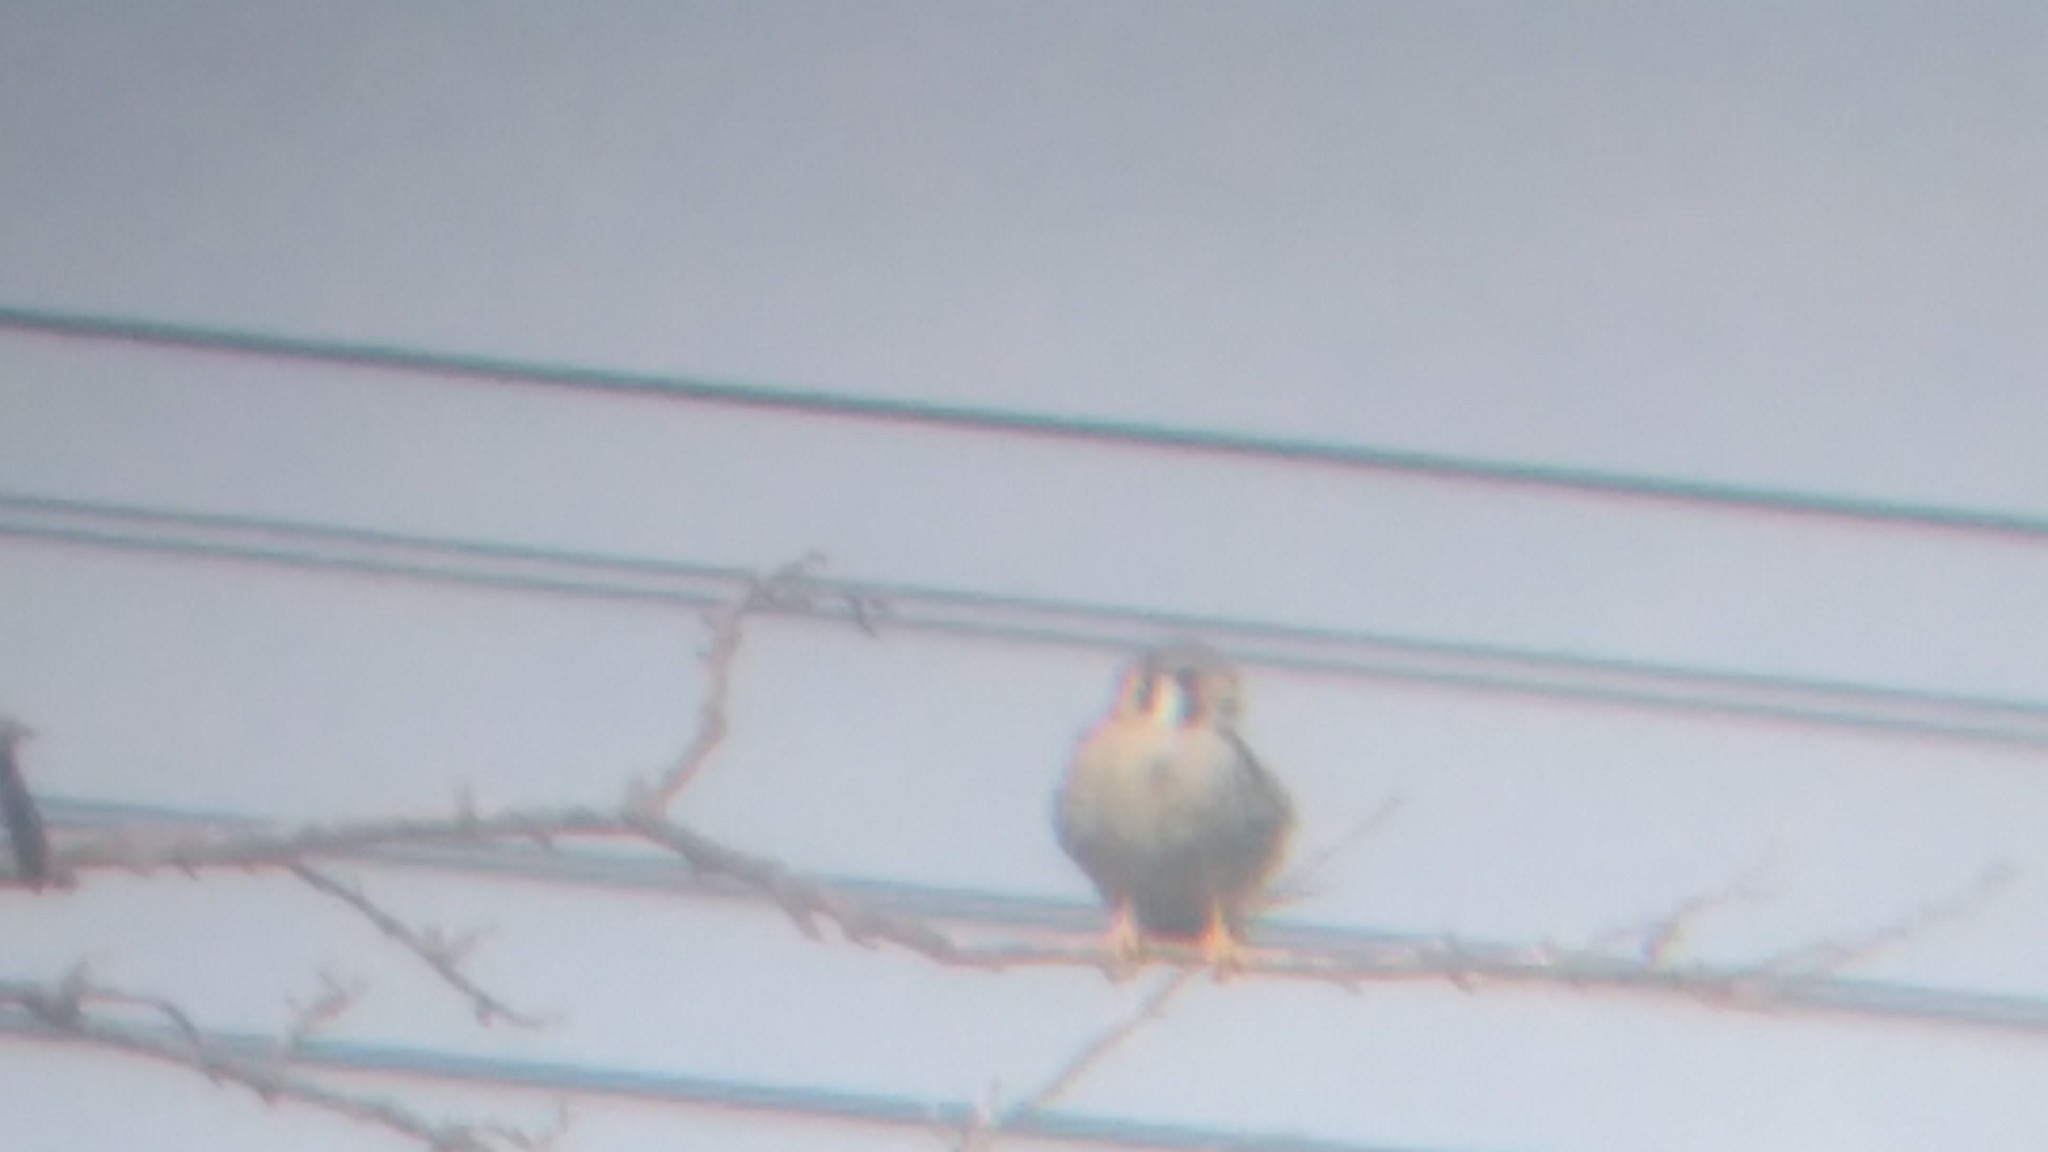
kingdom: Animalia
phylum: Chordata
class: Aves
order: Falconiformes
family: Falconidae
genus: Falco
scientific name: Falco sparverius
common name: American kestrel
